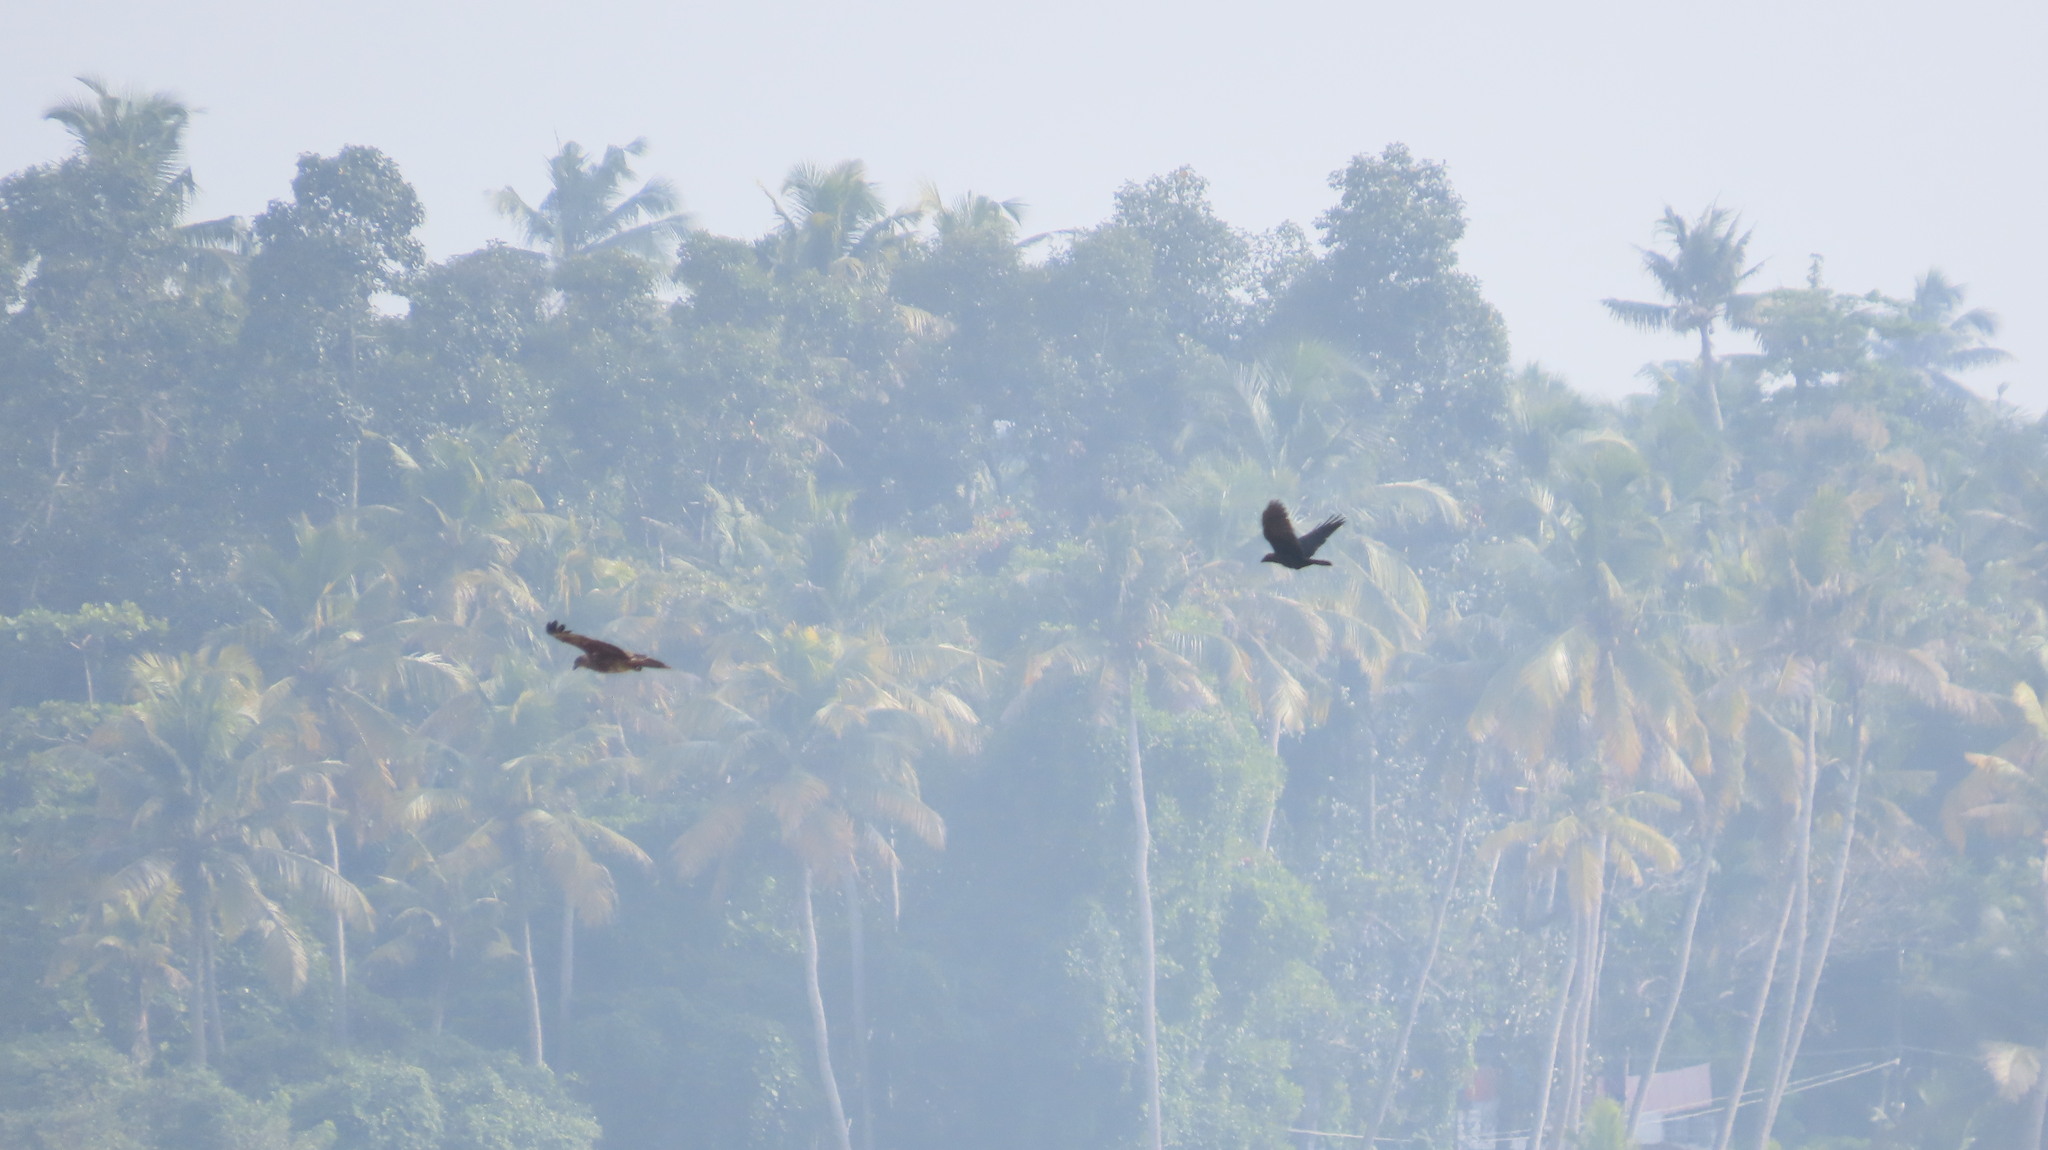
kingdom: Animalia
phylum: Chordata
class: Aves
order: Accipitriformes
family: Accipitridae
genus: Haliastur
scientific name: Haliastur indus
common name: Brahminy kite
